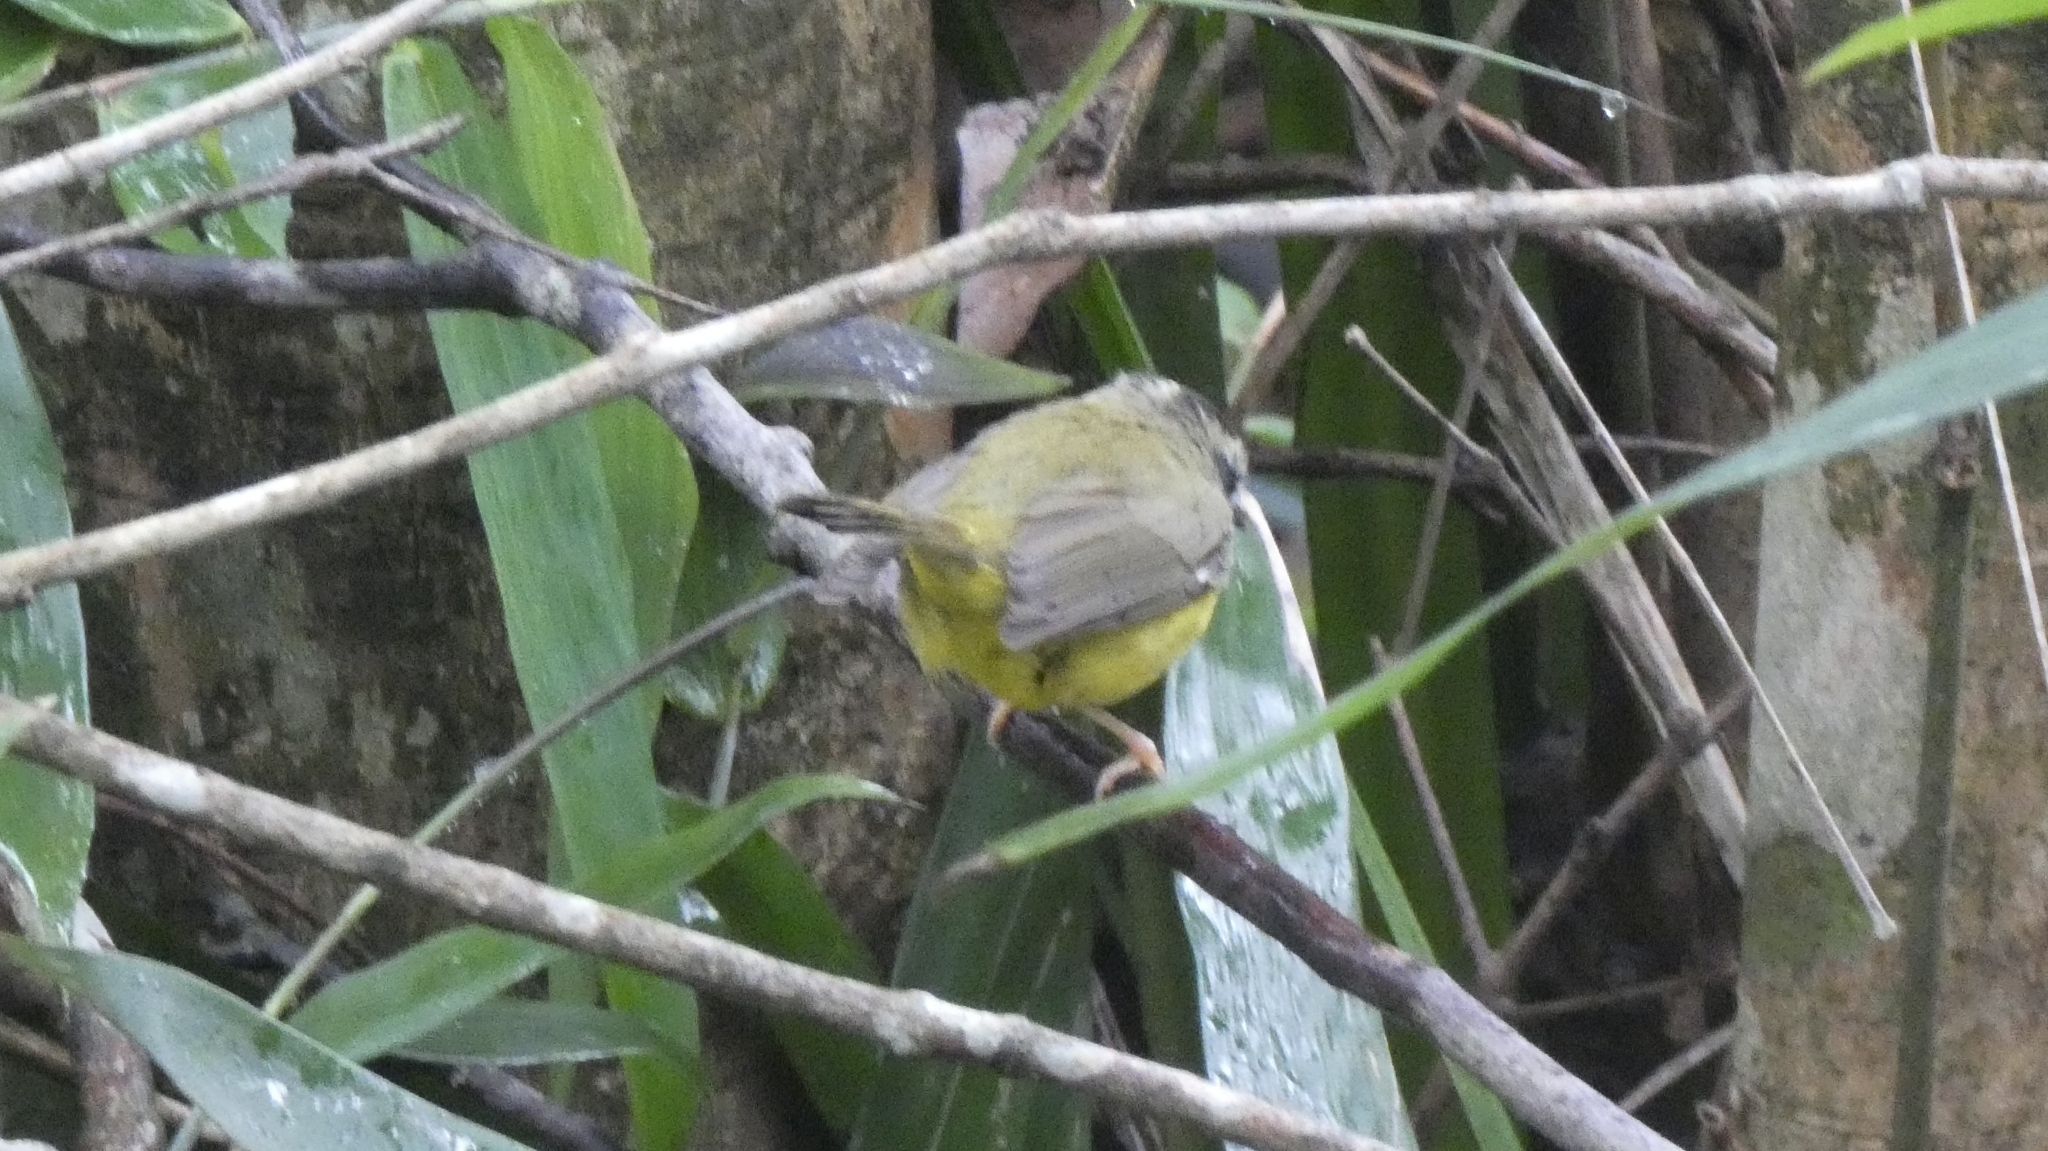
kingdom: Animalia
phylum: Chordata
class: Aves
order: Passeriformes
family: Parulidae
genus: Basileuterus
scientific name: Basileuterus culicivorus
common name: Golden-crowned warbler
